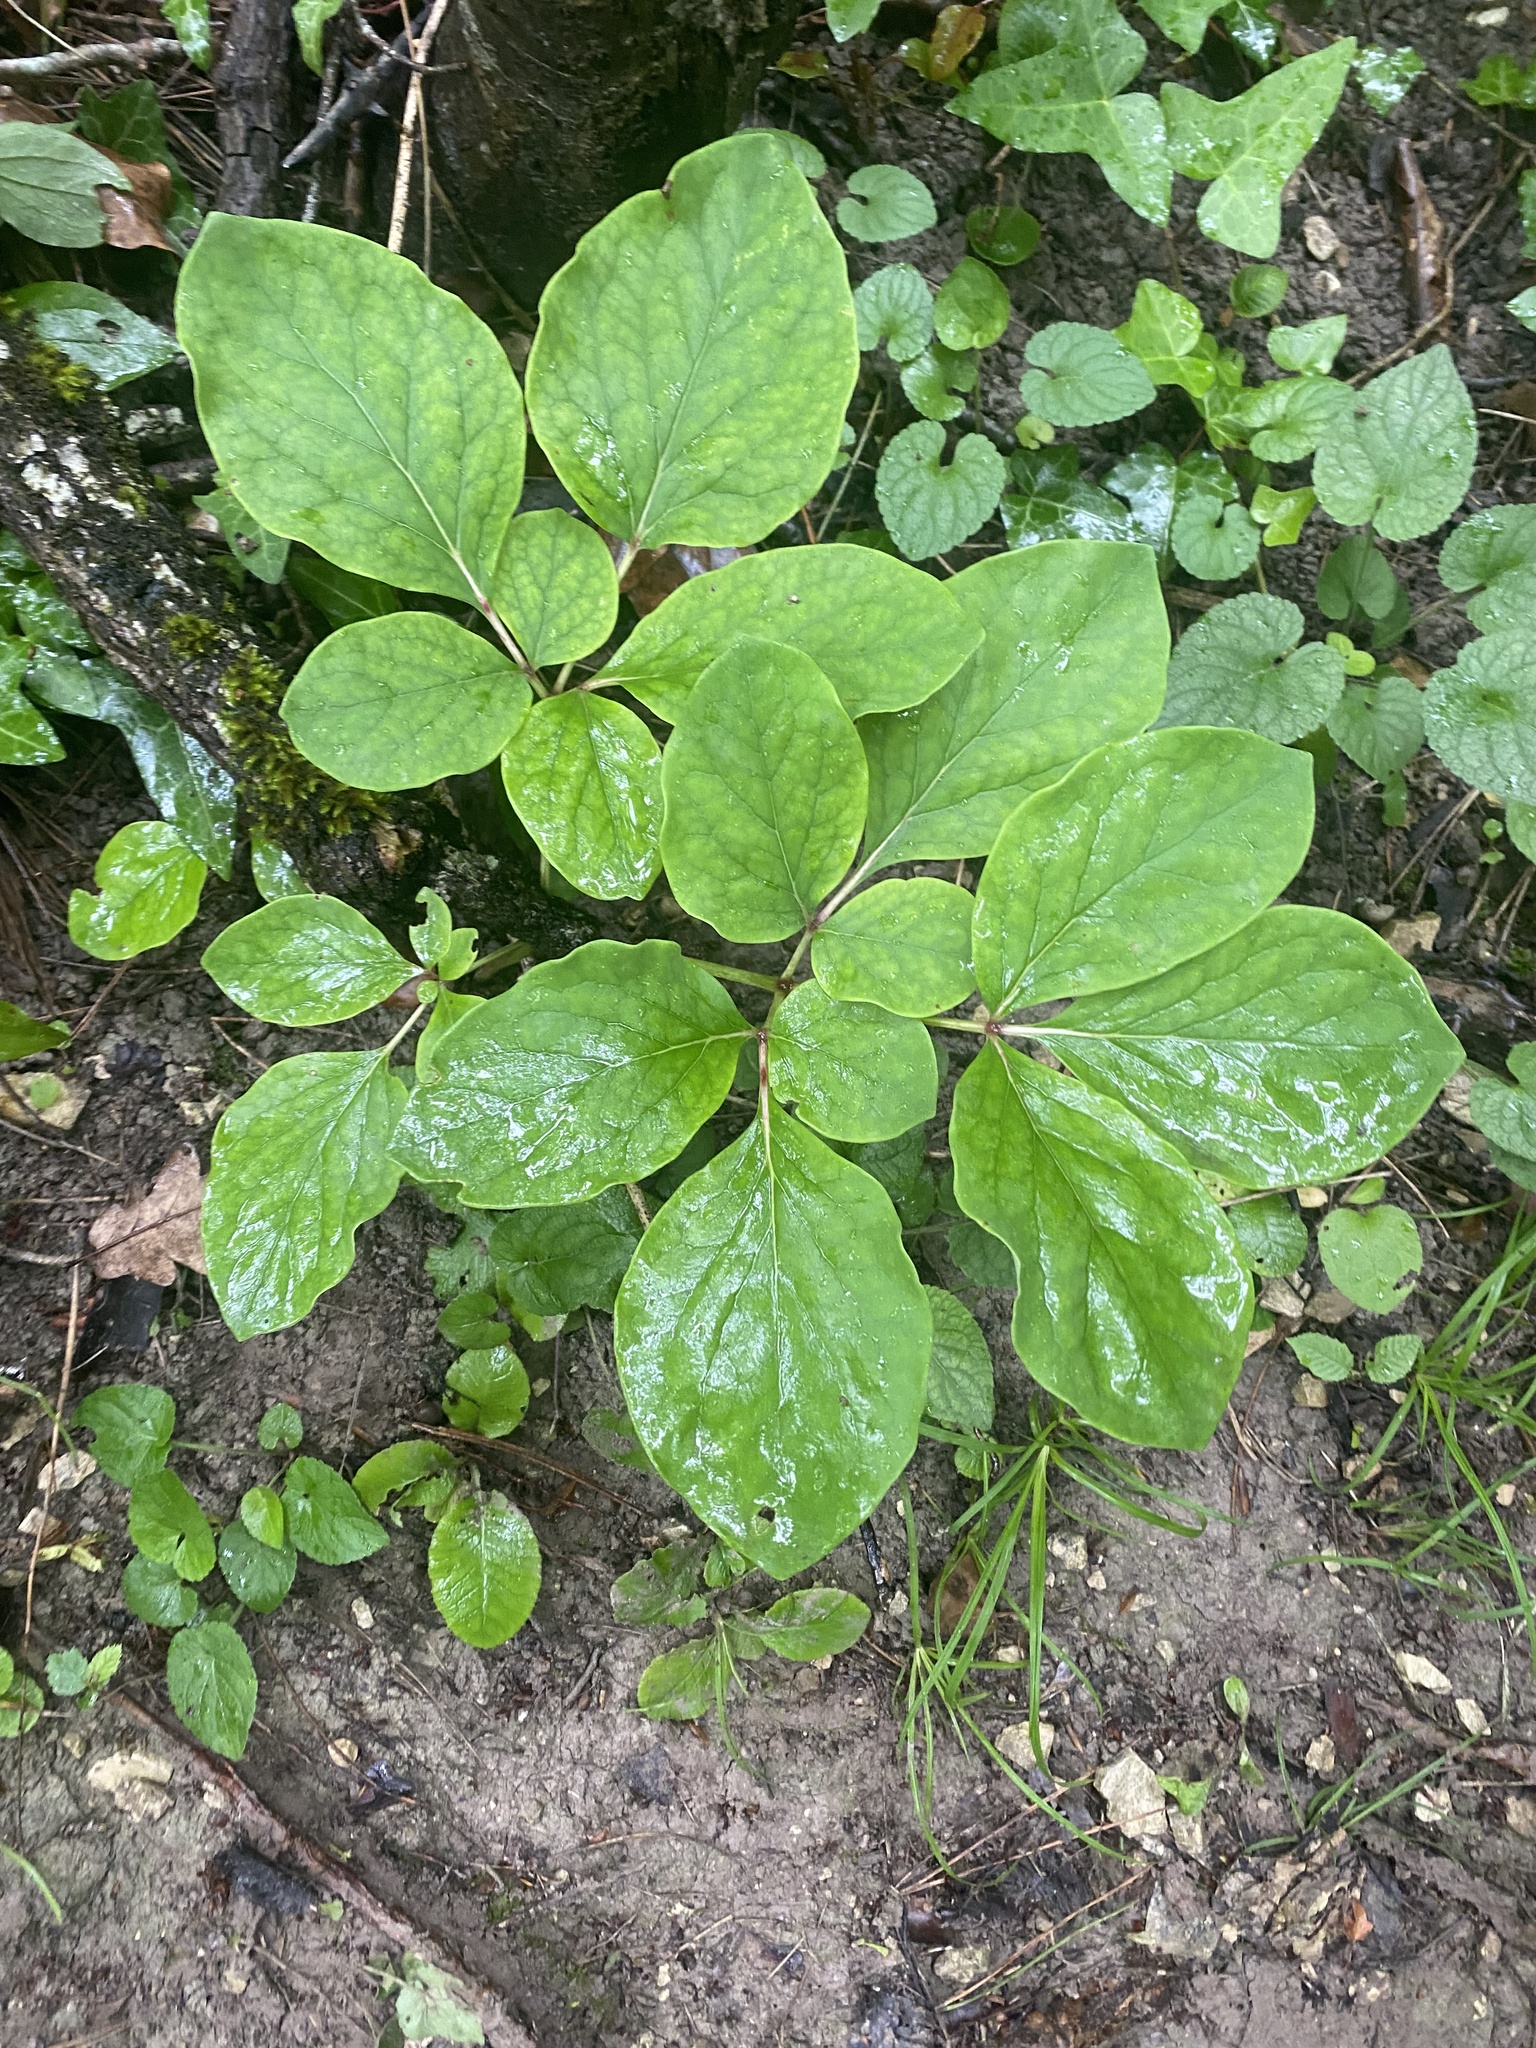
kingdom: Plantae
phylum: Tracheophyta
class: Magnoliopsida
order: Saxifragales
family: Paeoniaceae
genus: Paeonia
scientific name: Paeonia caucasica
